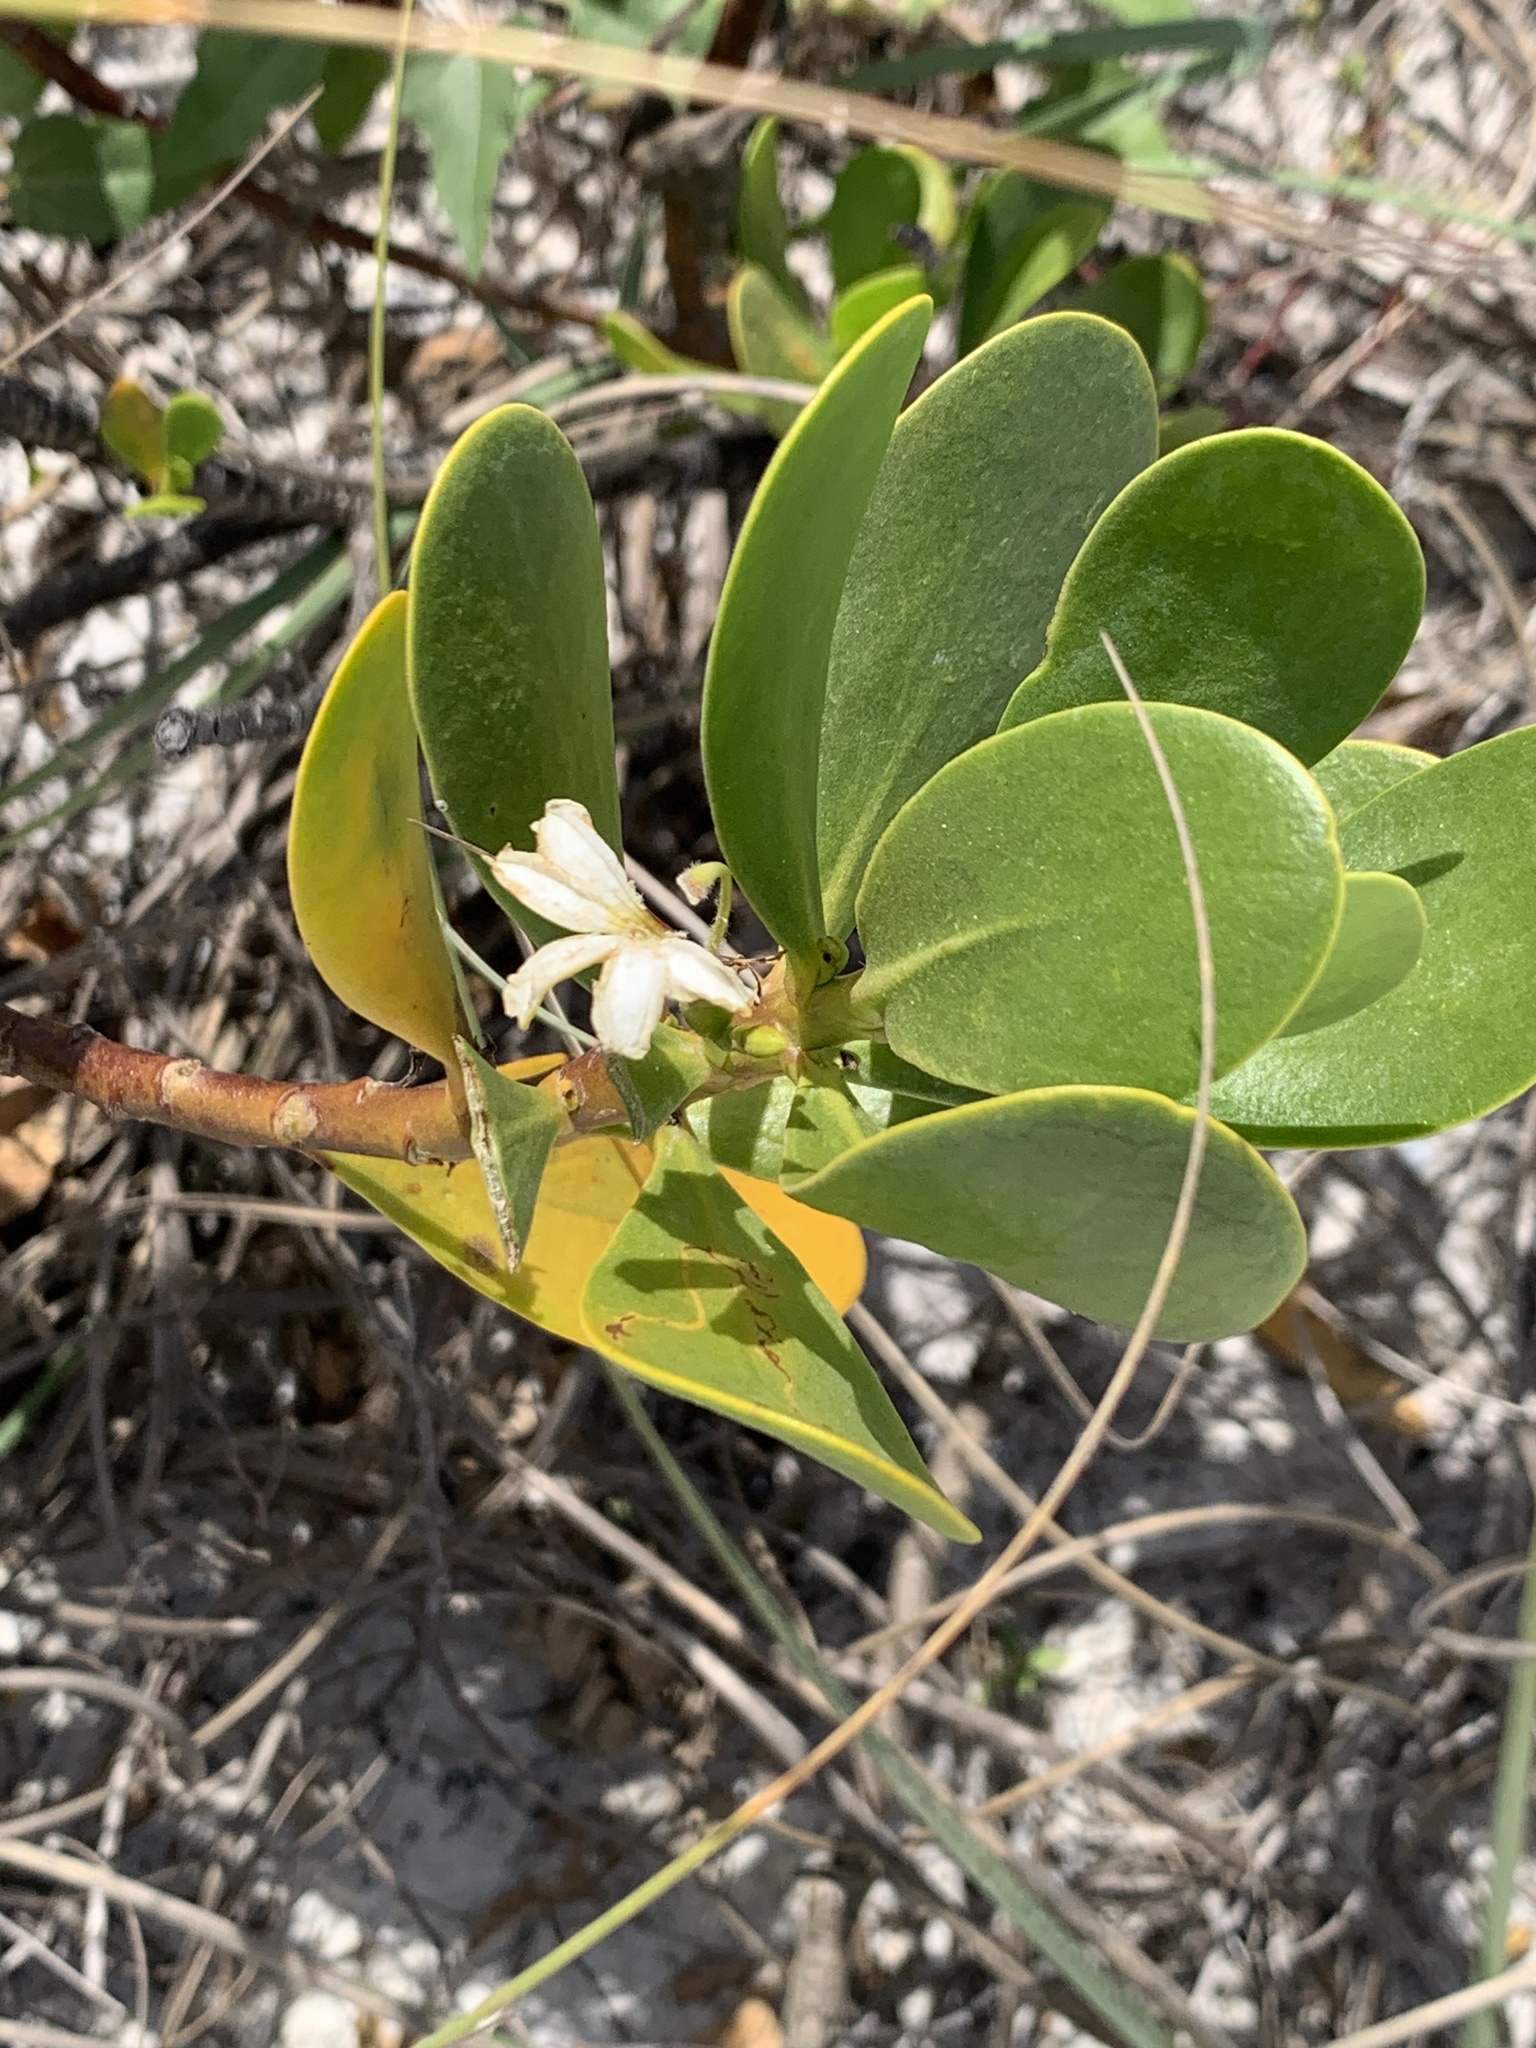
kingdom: Plantae
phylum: Tracheophyta
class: Magnoliopsida
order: Asterales
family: Goodeniaceae
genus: Scaevola
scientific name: Scaevola plumieri
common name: Gull feed
